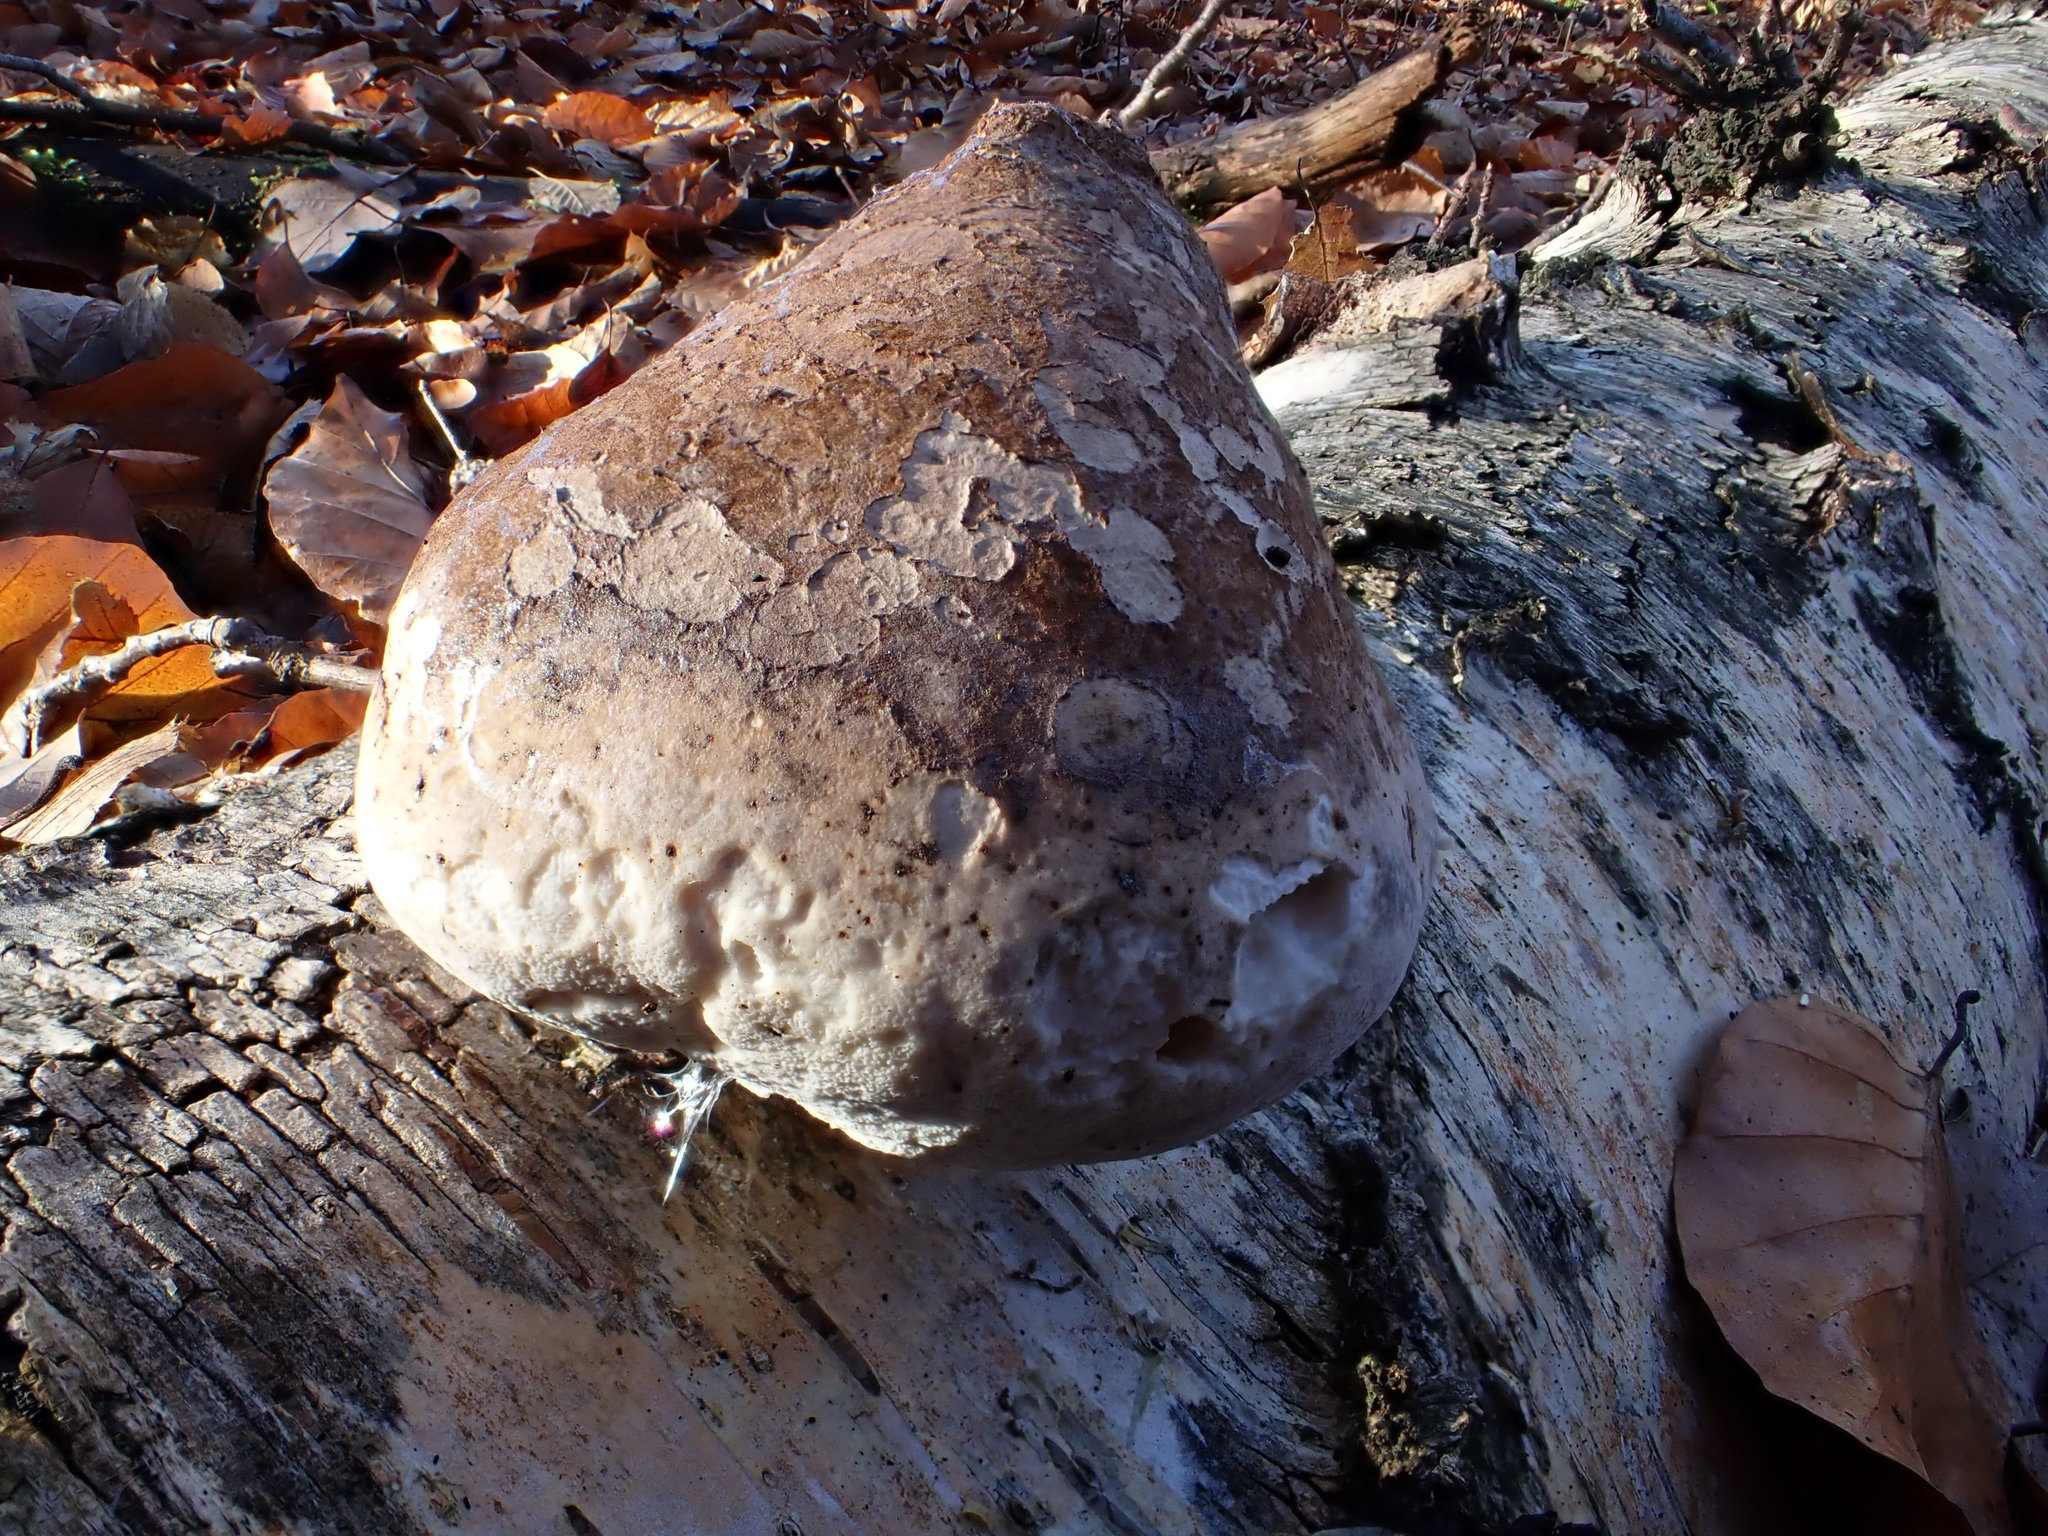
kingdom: Fungi
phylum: Basidiomycota
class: Agaricomycetes
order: Polyporales
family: Fomitopsidaceae
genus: Fomitopsis
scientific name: Fomitopsis betulina
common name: Birch polypore
